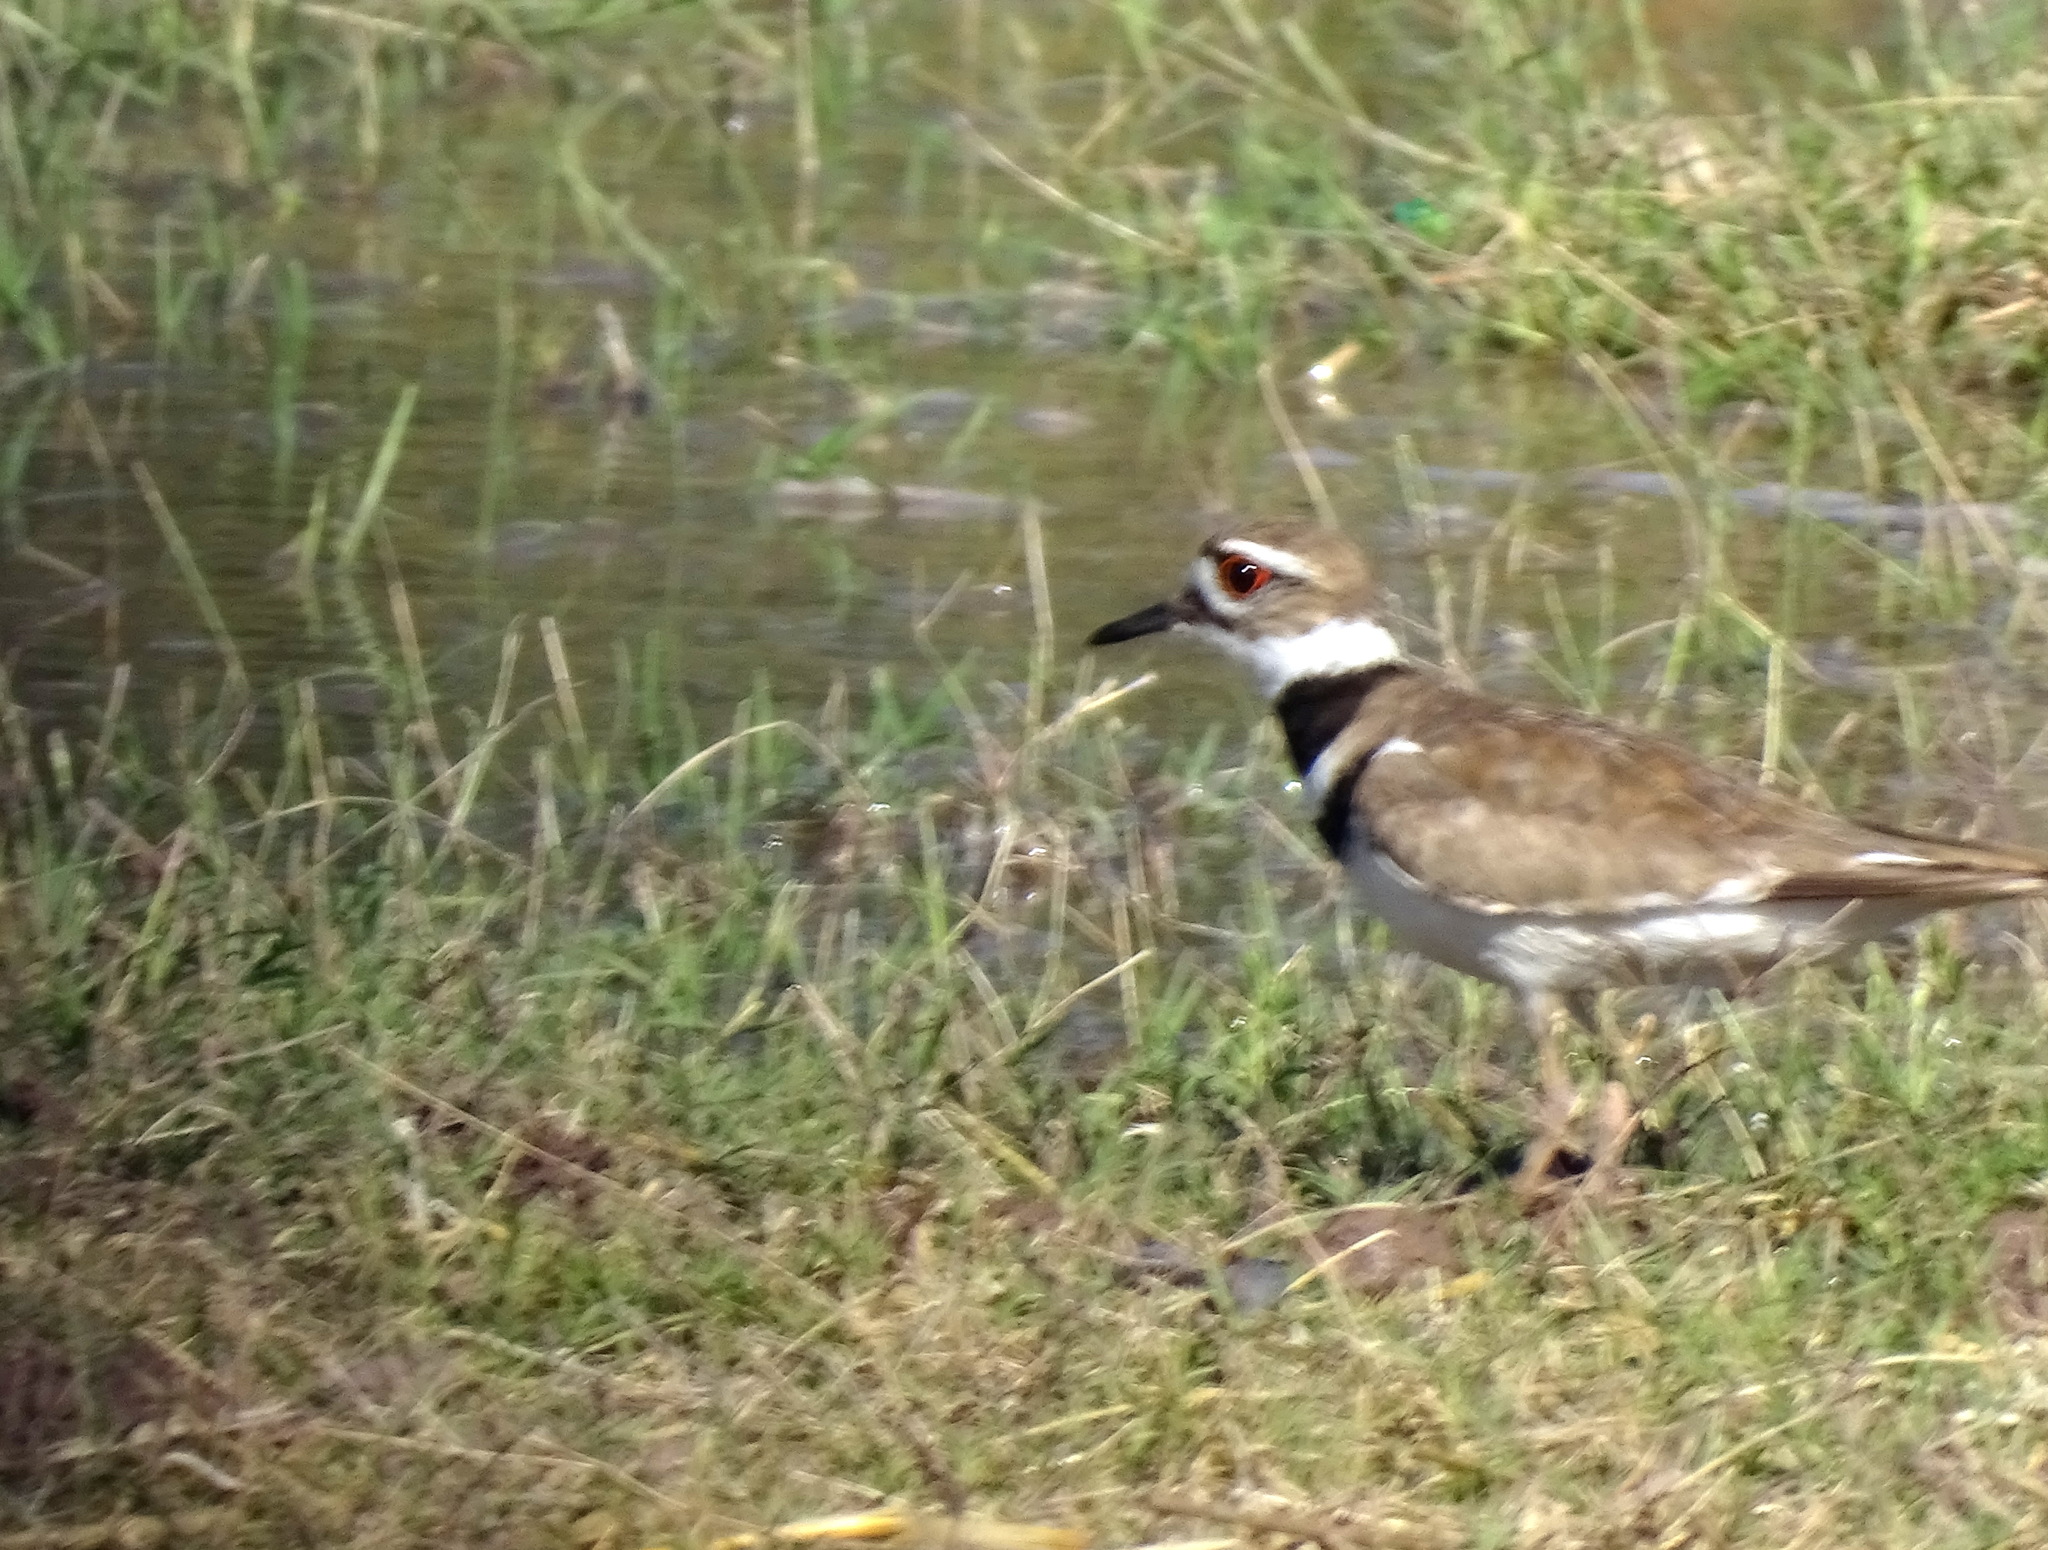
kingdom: Animalia
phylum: Chordata
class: Aves
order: Charadriiformes
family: Charadriidae
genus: Charadrius
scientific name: Charadrius vociferus
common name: Killdeer
